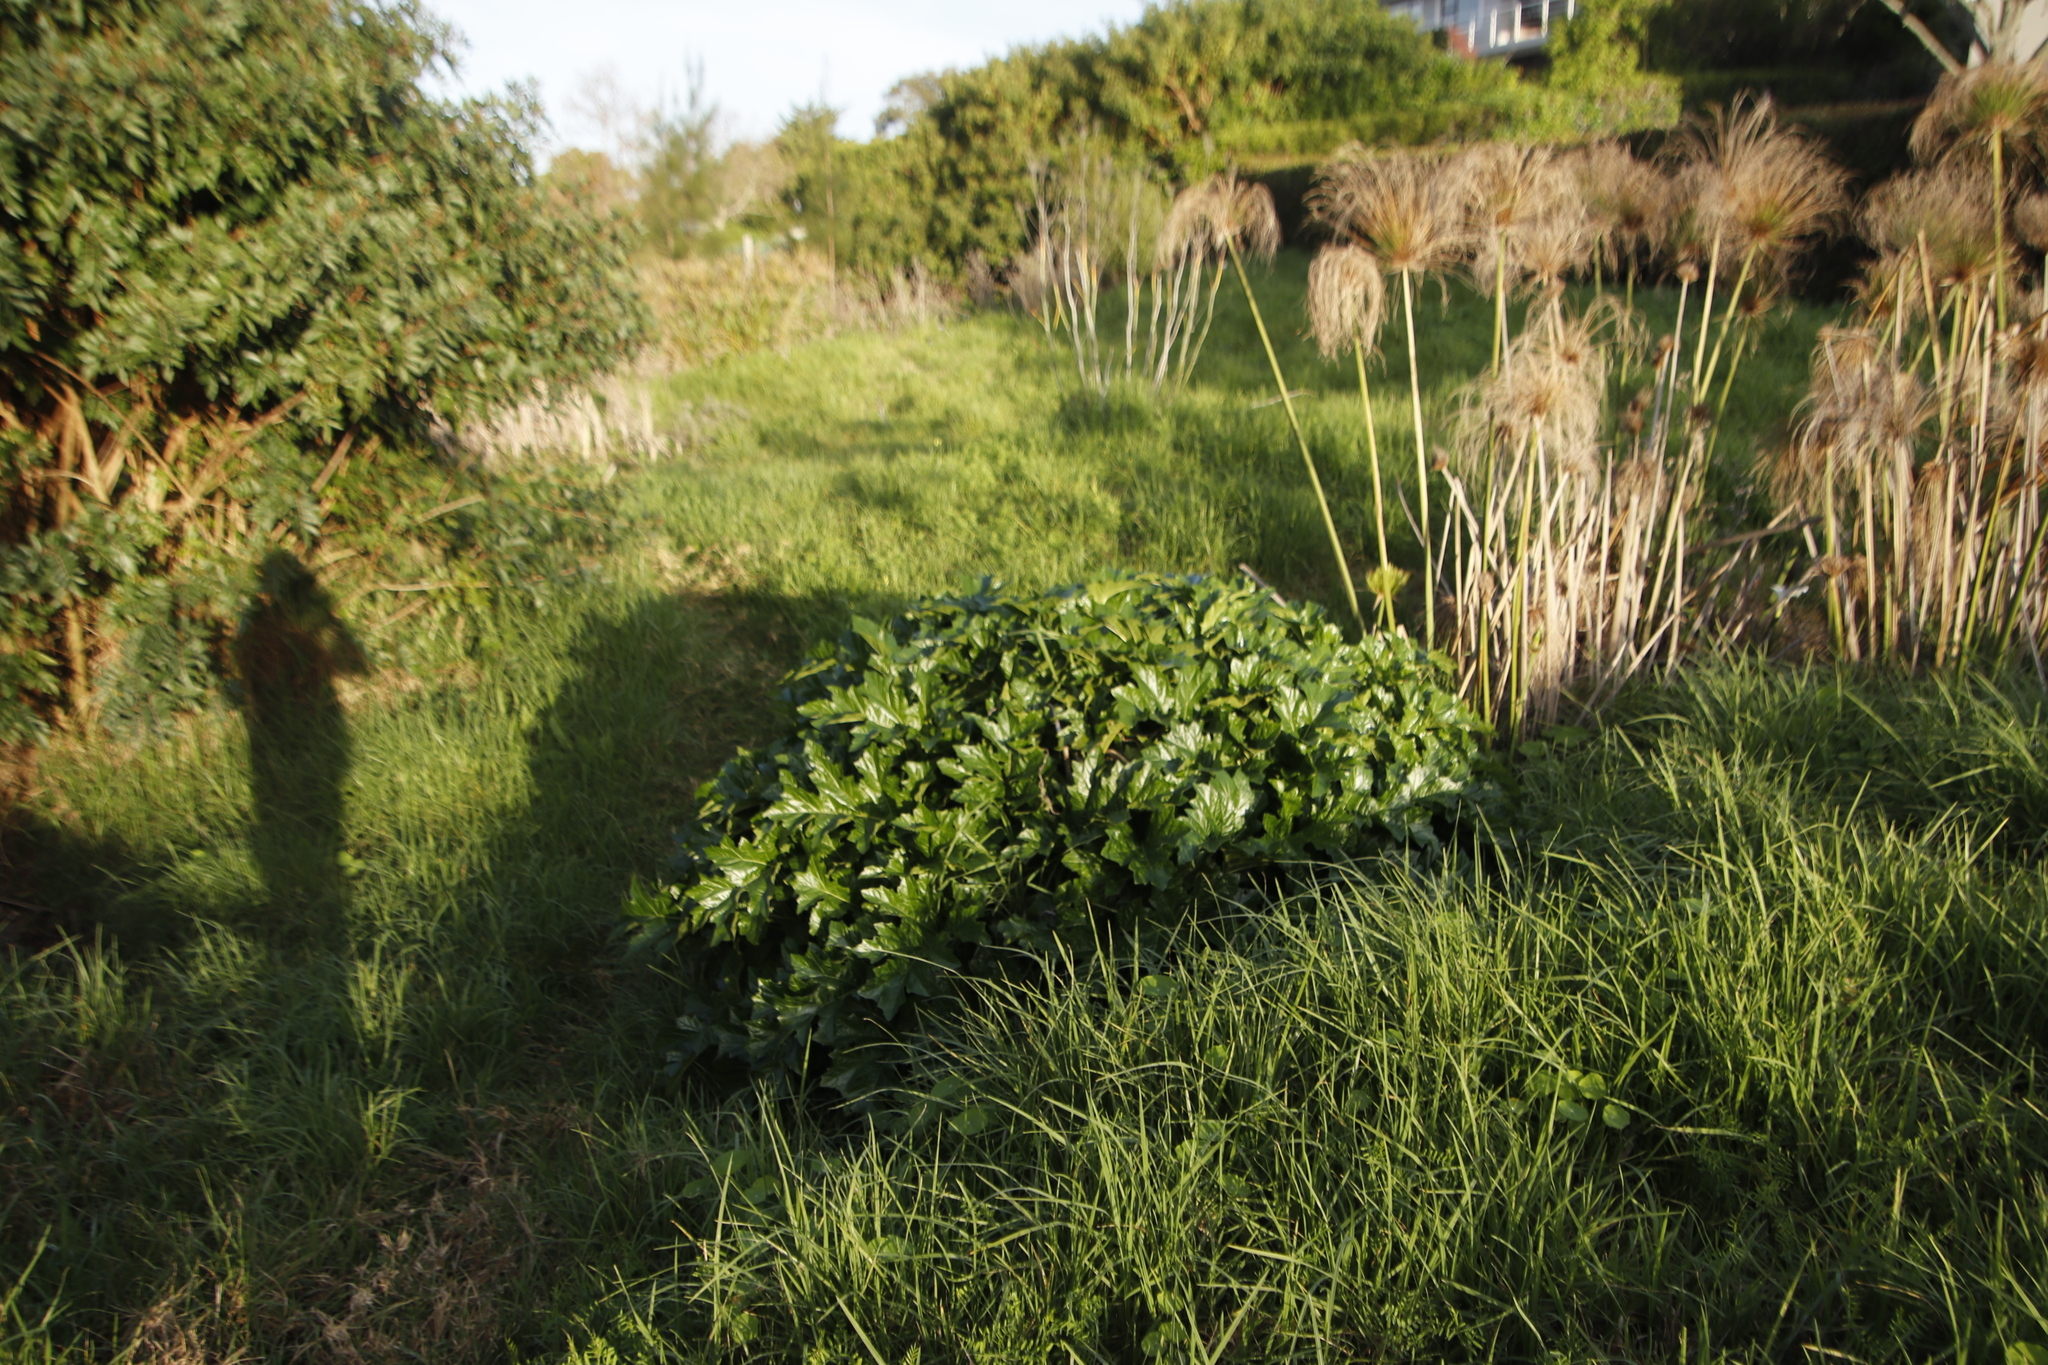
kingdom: Plantae
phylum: Tracheophyta
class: Magnoliopsida
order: Lamiales
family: Acanthaceae
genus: Acanthus
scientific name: Acanthus mollis
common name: Bear's-breech
